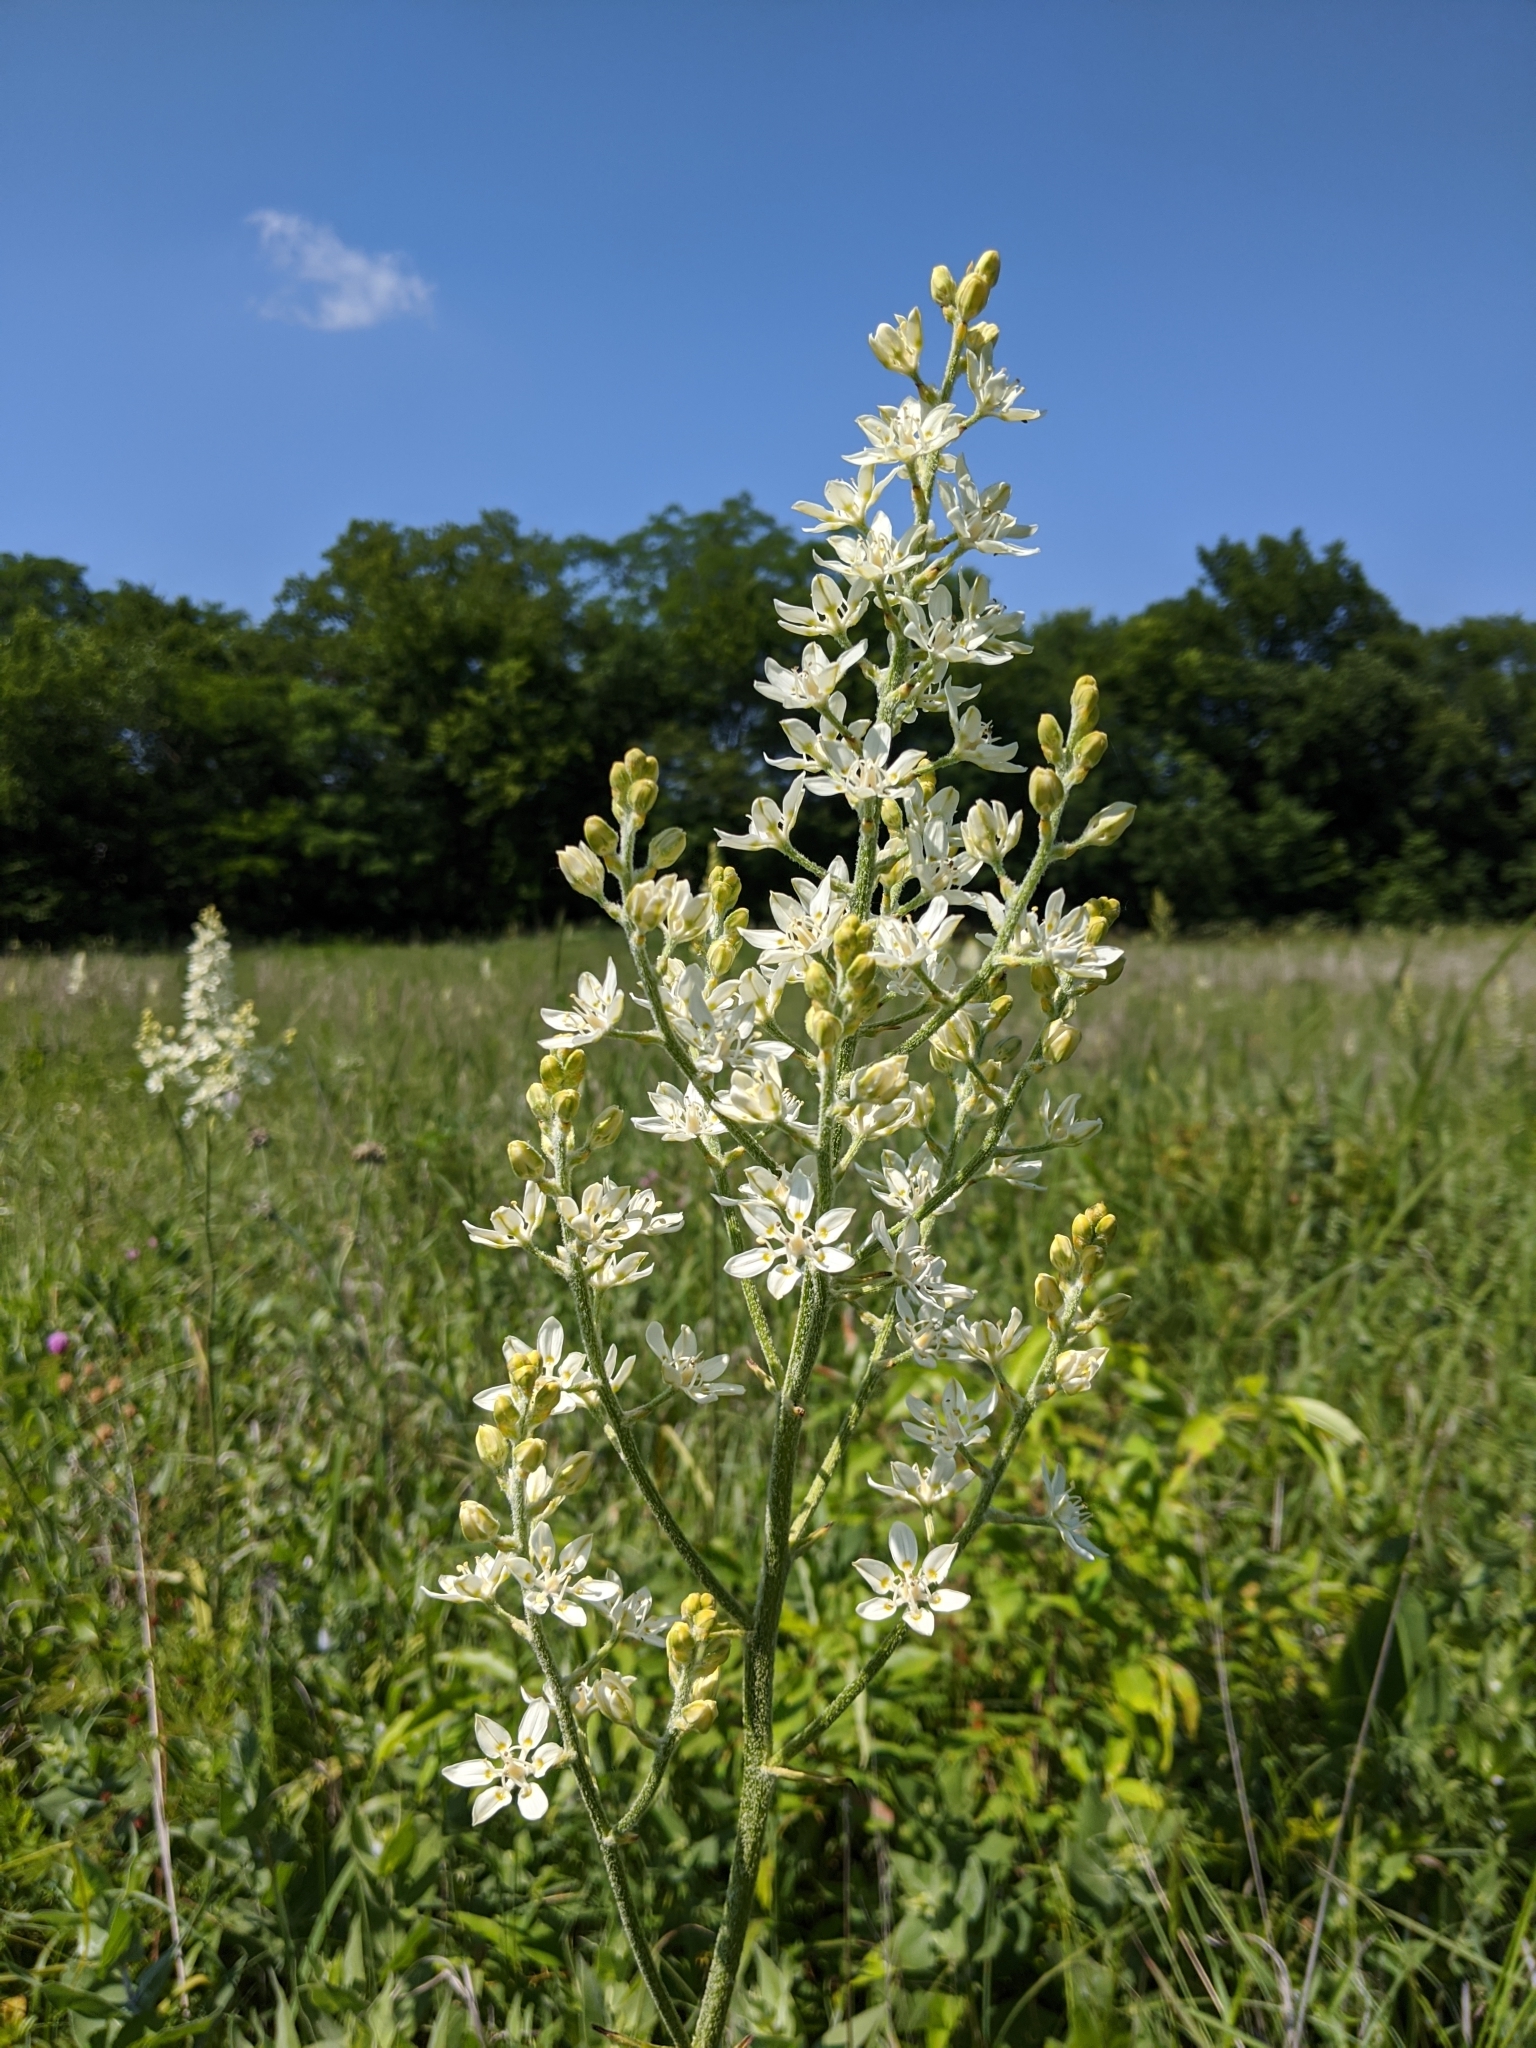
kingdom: Plantae
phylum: Tracheophyta
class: Liliopsida
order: Liliales
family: Melanthiaceae
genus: Melanthium
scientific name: Melanthium virginicum
